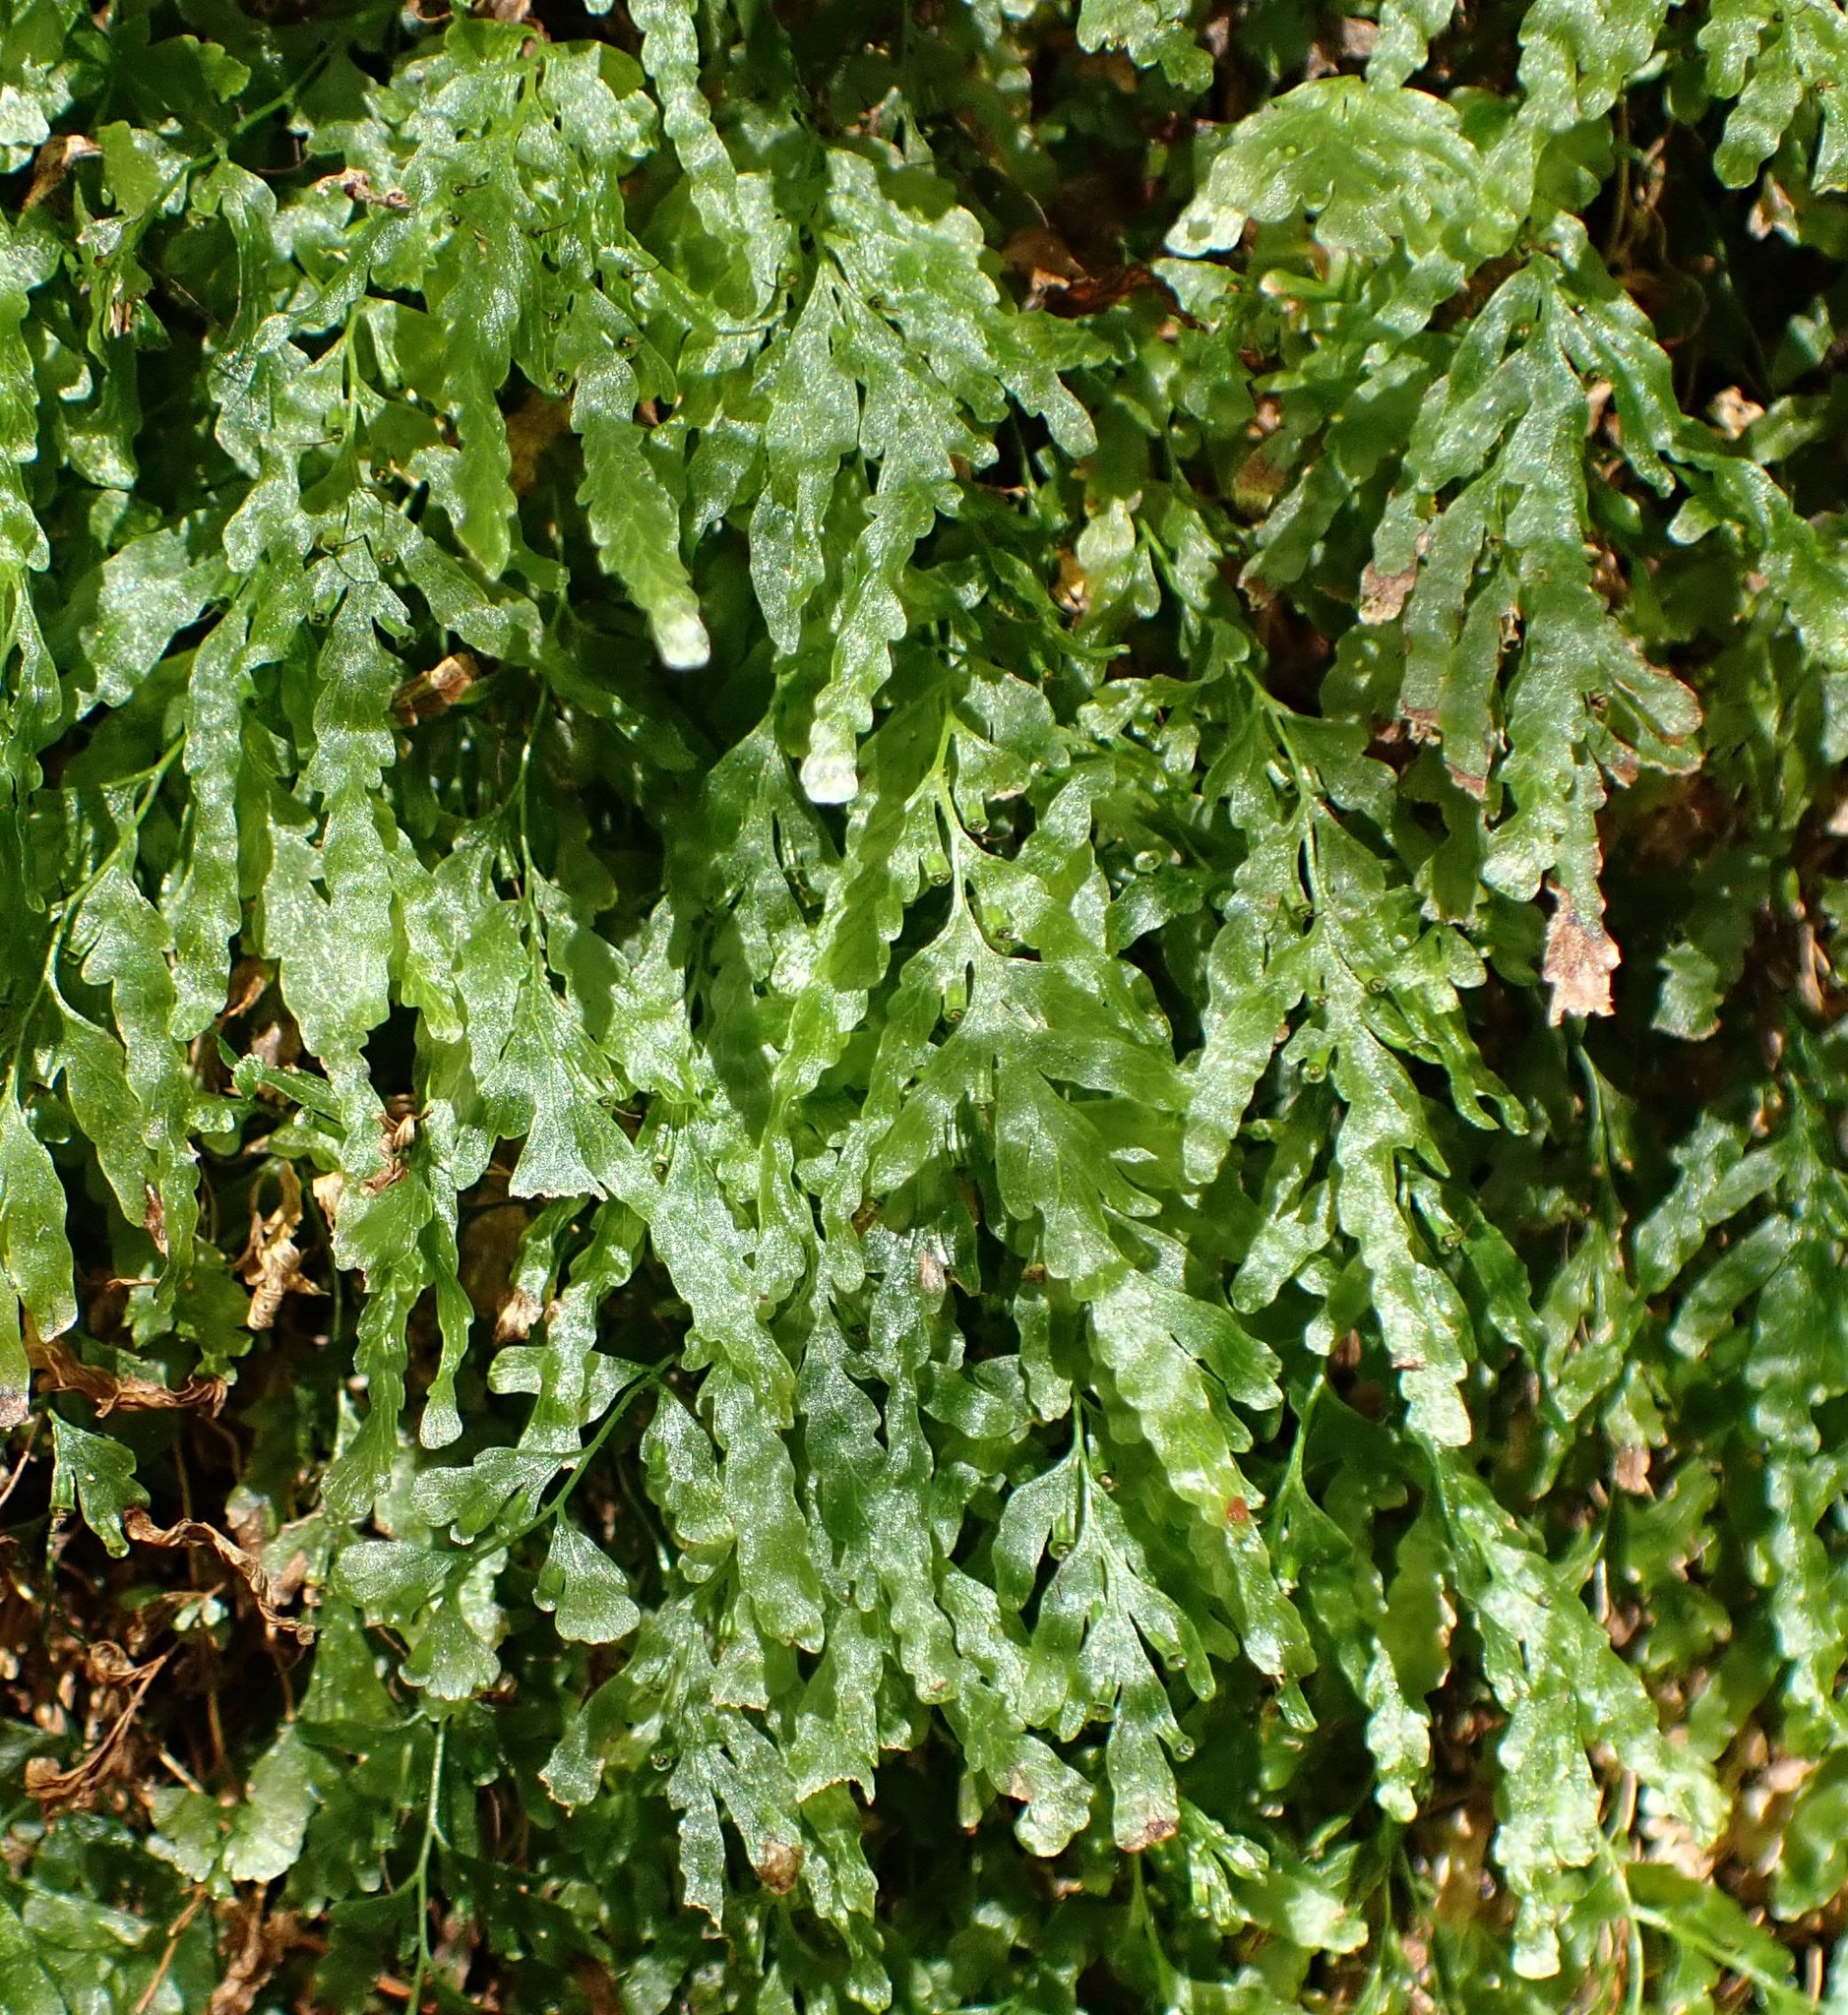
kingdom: Plantae
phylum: Tracheophyta
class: Polypodiopsida
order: Hymenophyllales
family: Hymenophyllaceae
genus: Polyphlebium
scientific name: Polyphlebium venosum
